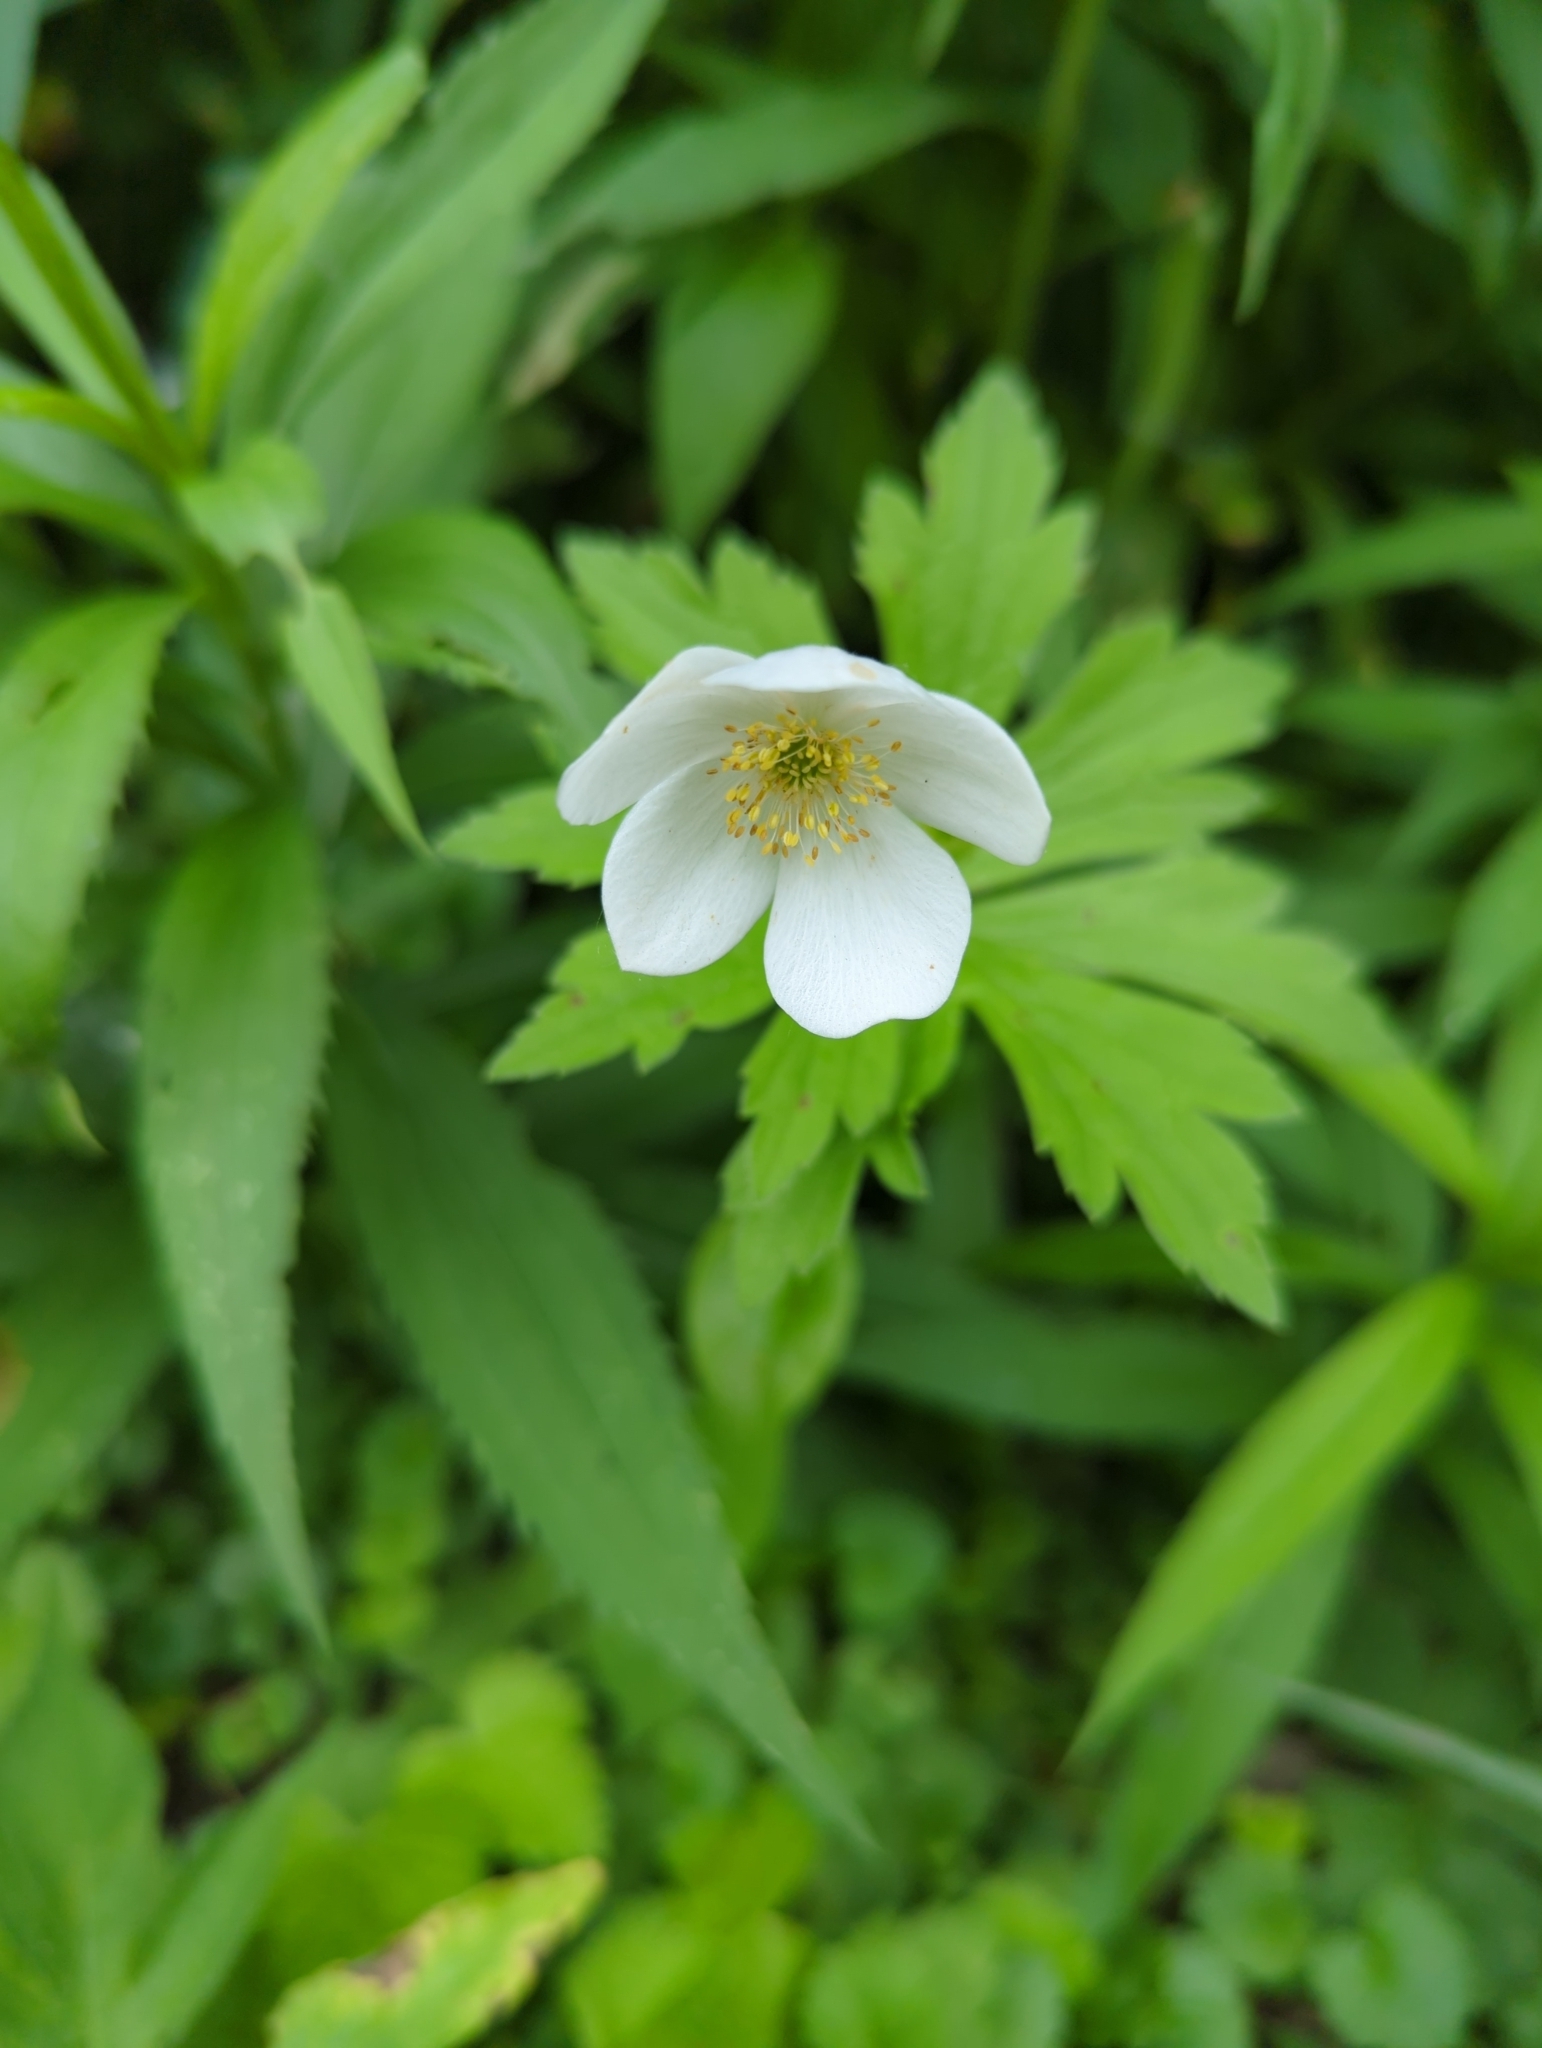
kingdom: Plantae
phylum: Tracheophyta
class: Magnoliopsida
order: Ranunculales
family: Ranunculaceae
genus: Anemonastrum
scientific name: Anemonastrum canadense
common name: Canada anemone
